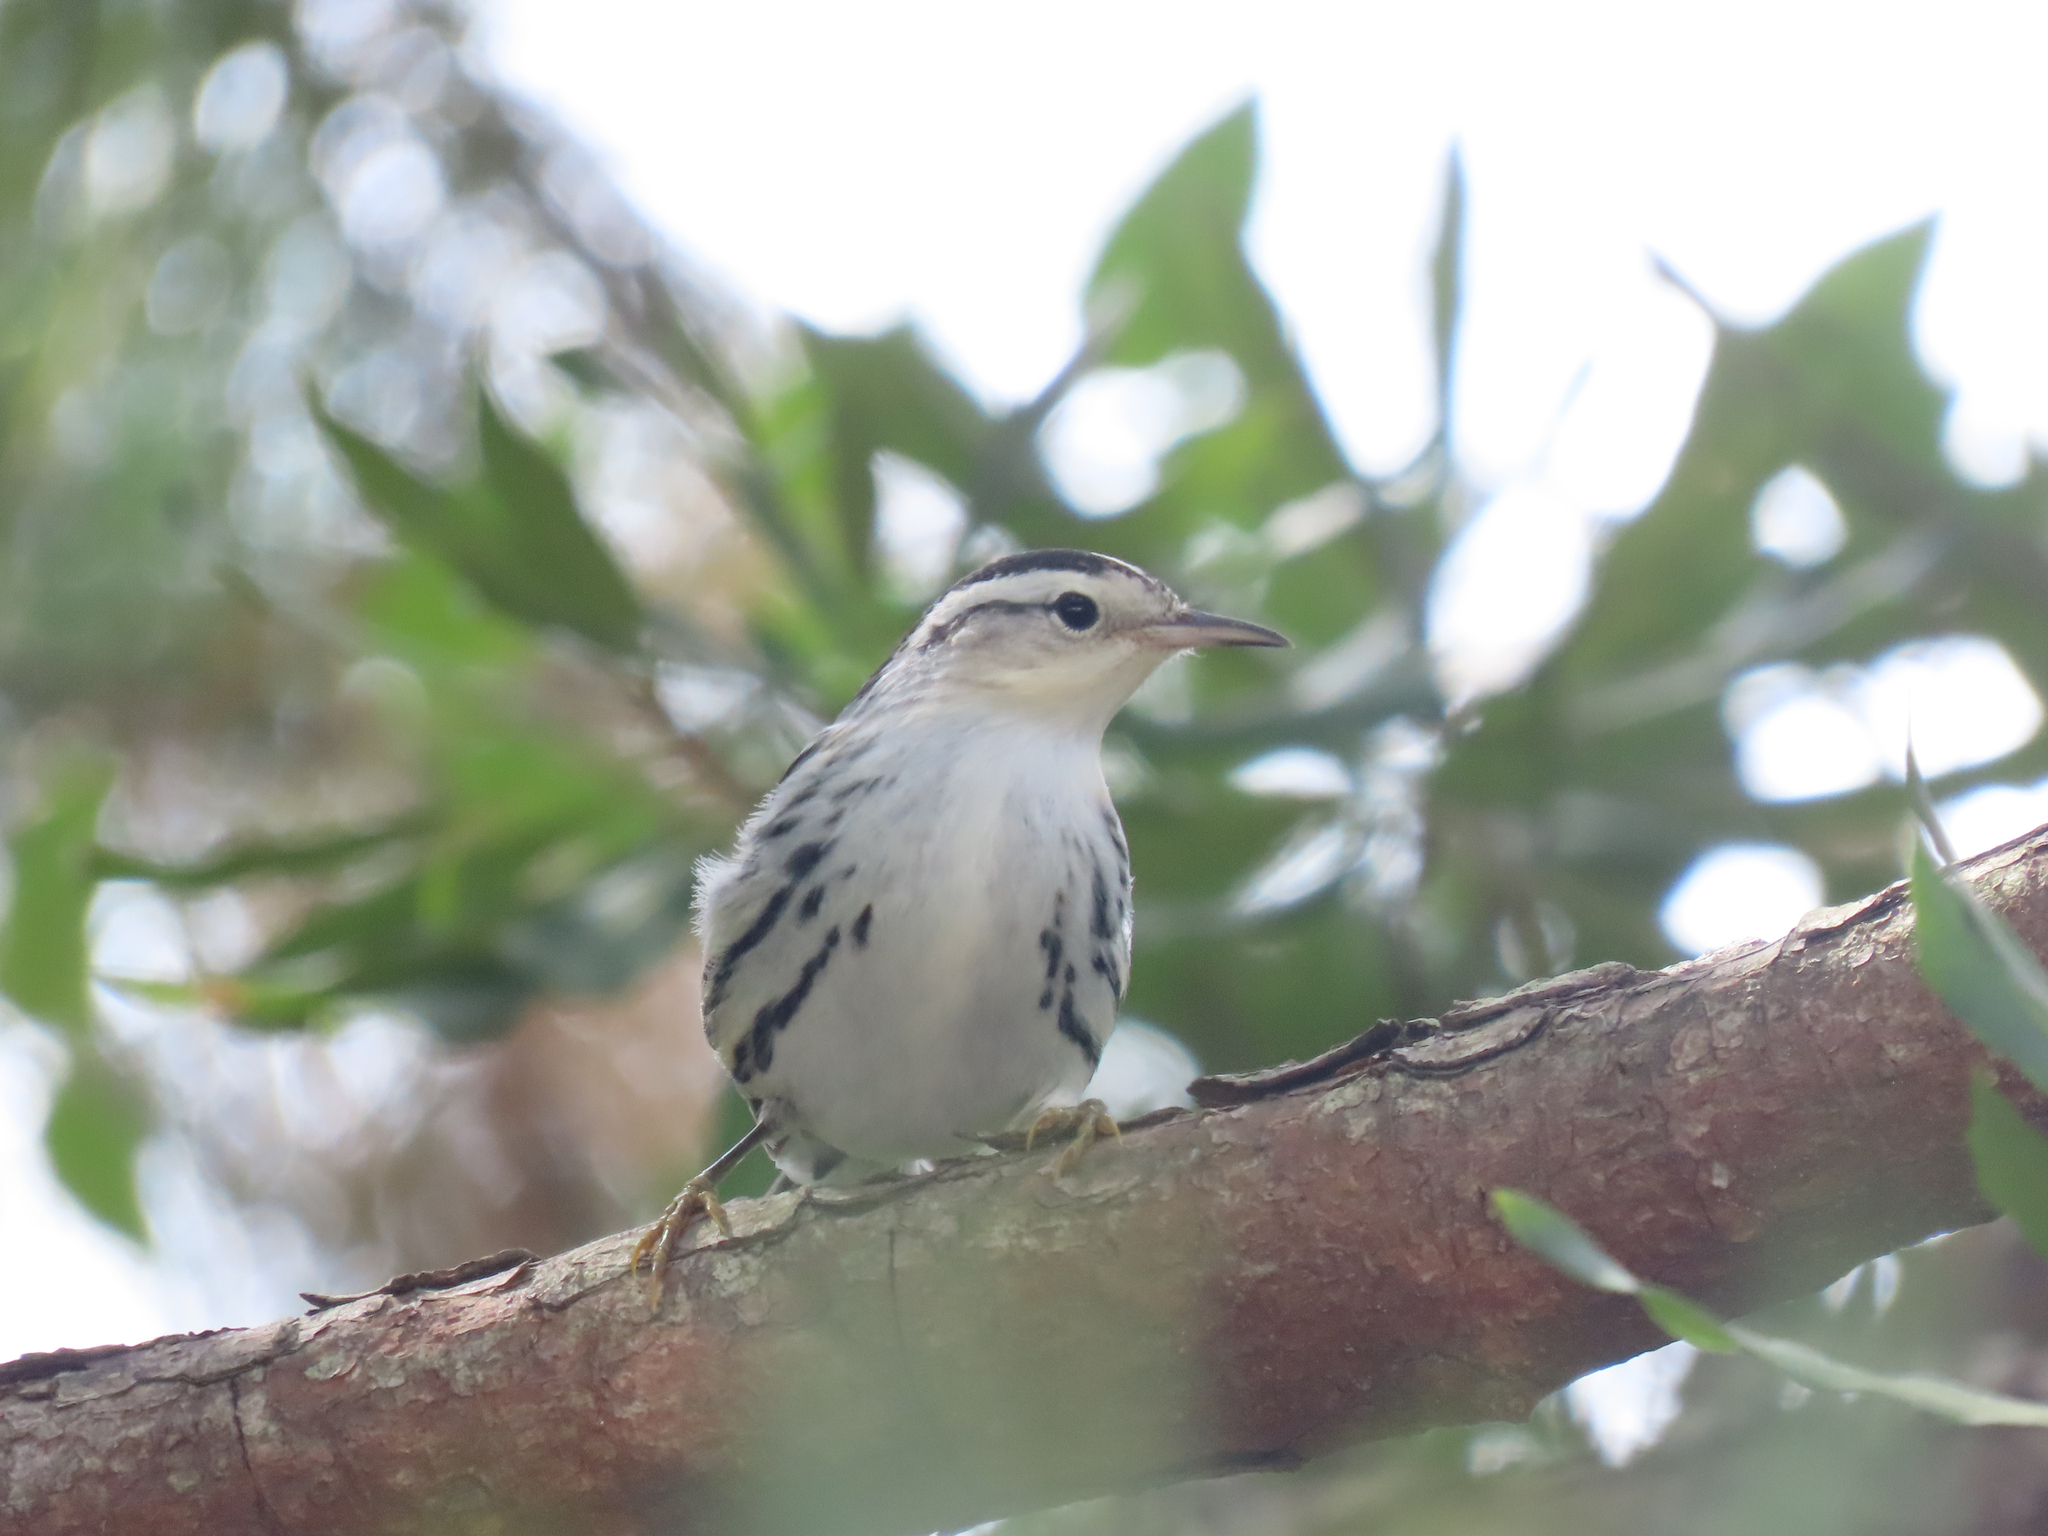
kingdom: Animalia
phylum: Chordata
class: Aves
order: Passeriformes
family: Parulidae
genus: Mniotilta
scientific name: Mniotilta varia
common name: Black-and-white warbler
